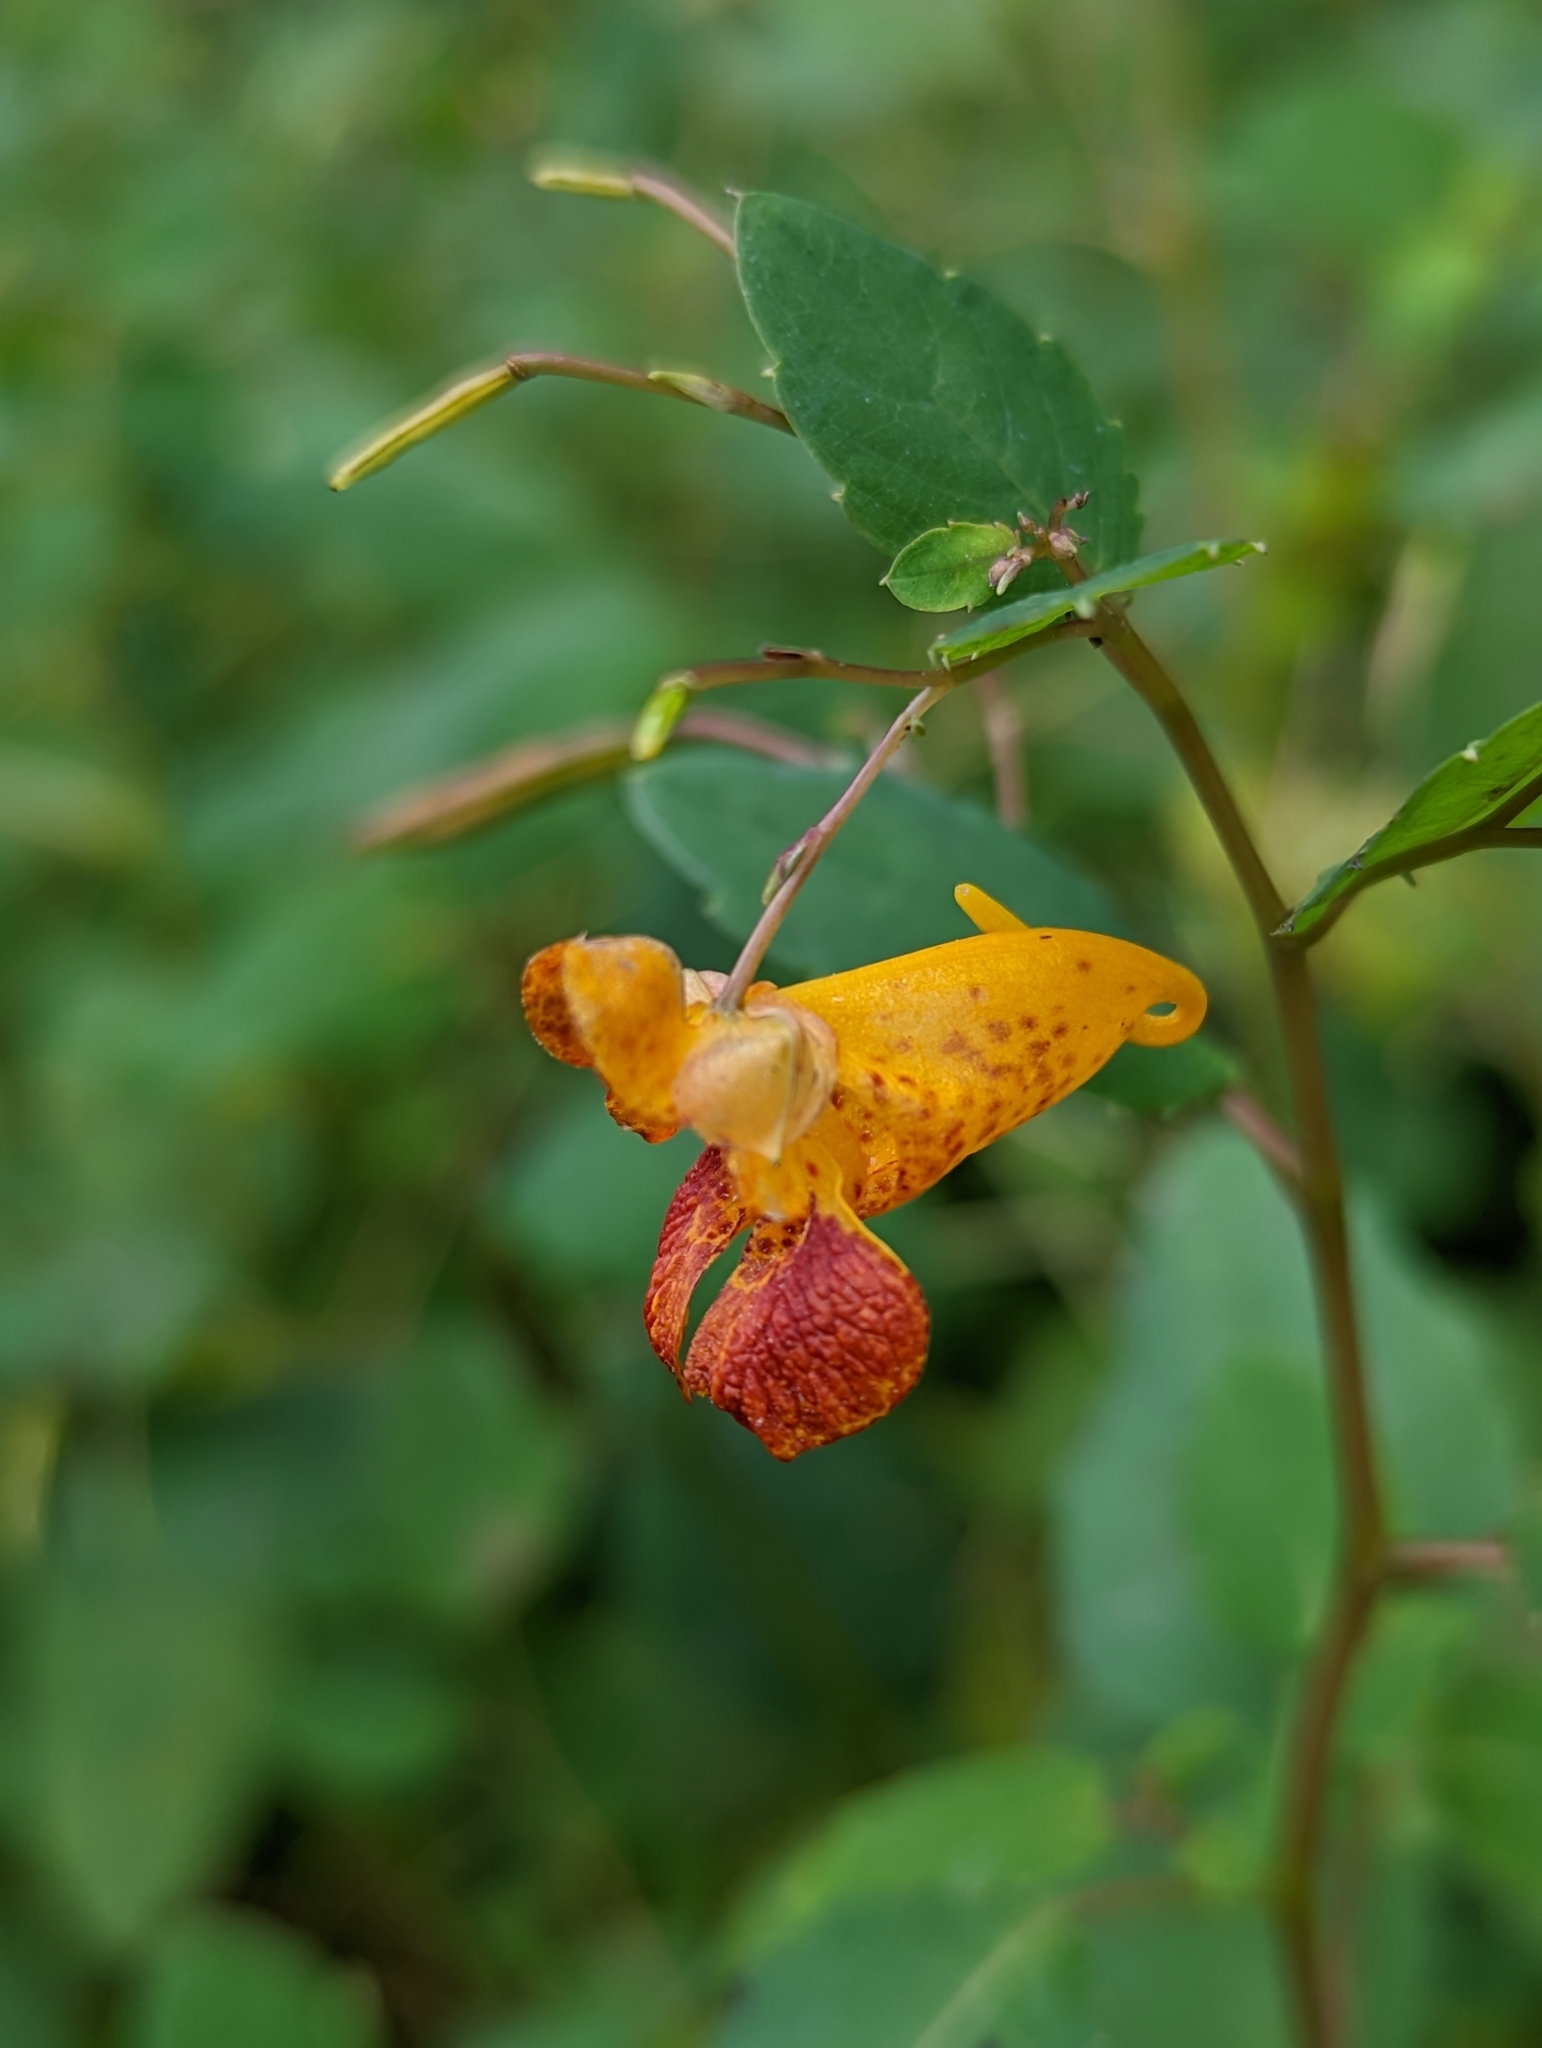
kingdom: Plantae
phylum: Tracheophyta
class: Magnoliopsida
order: Ericales
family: Balsaminaceae
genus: Impatiens
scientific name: Impatiens capensis
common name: Orange balsam
